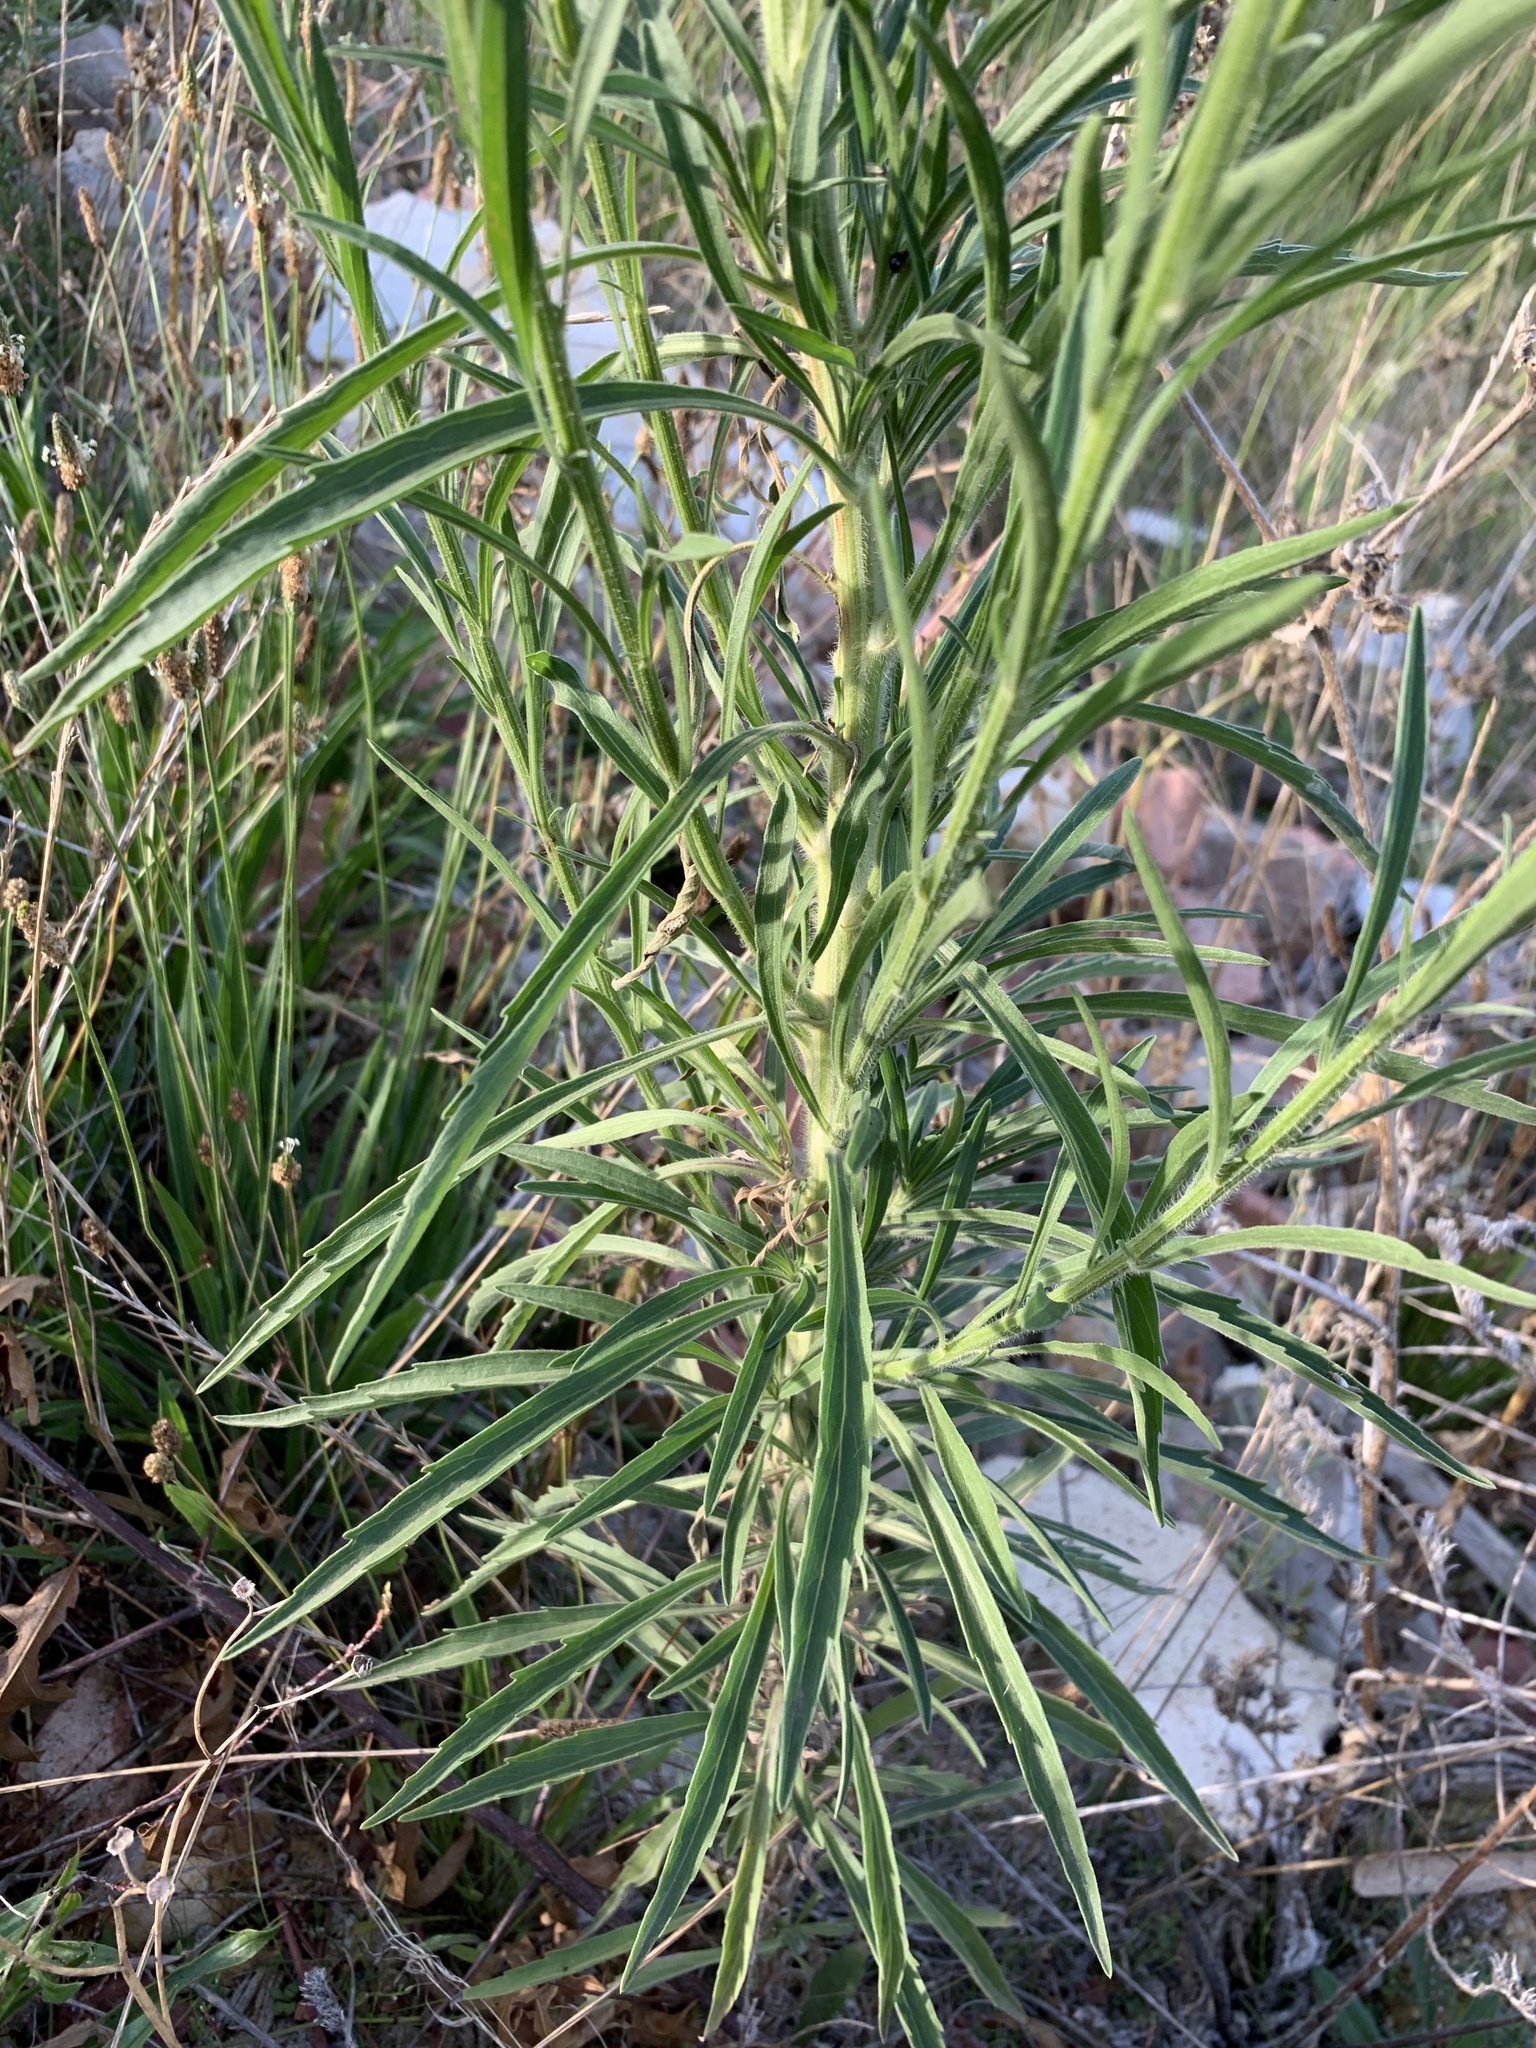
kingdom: Plantae
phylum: Tracheophyta
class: Magnoliopsida
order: Asterales
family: Asteraceae
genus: Erigeron
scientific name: Erigeron canadensis
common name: Canadian fleabane
